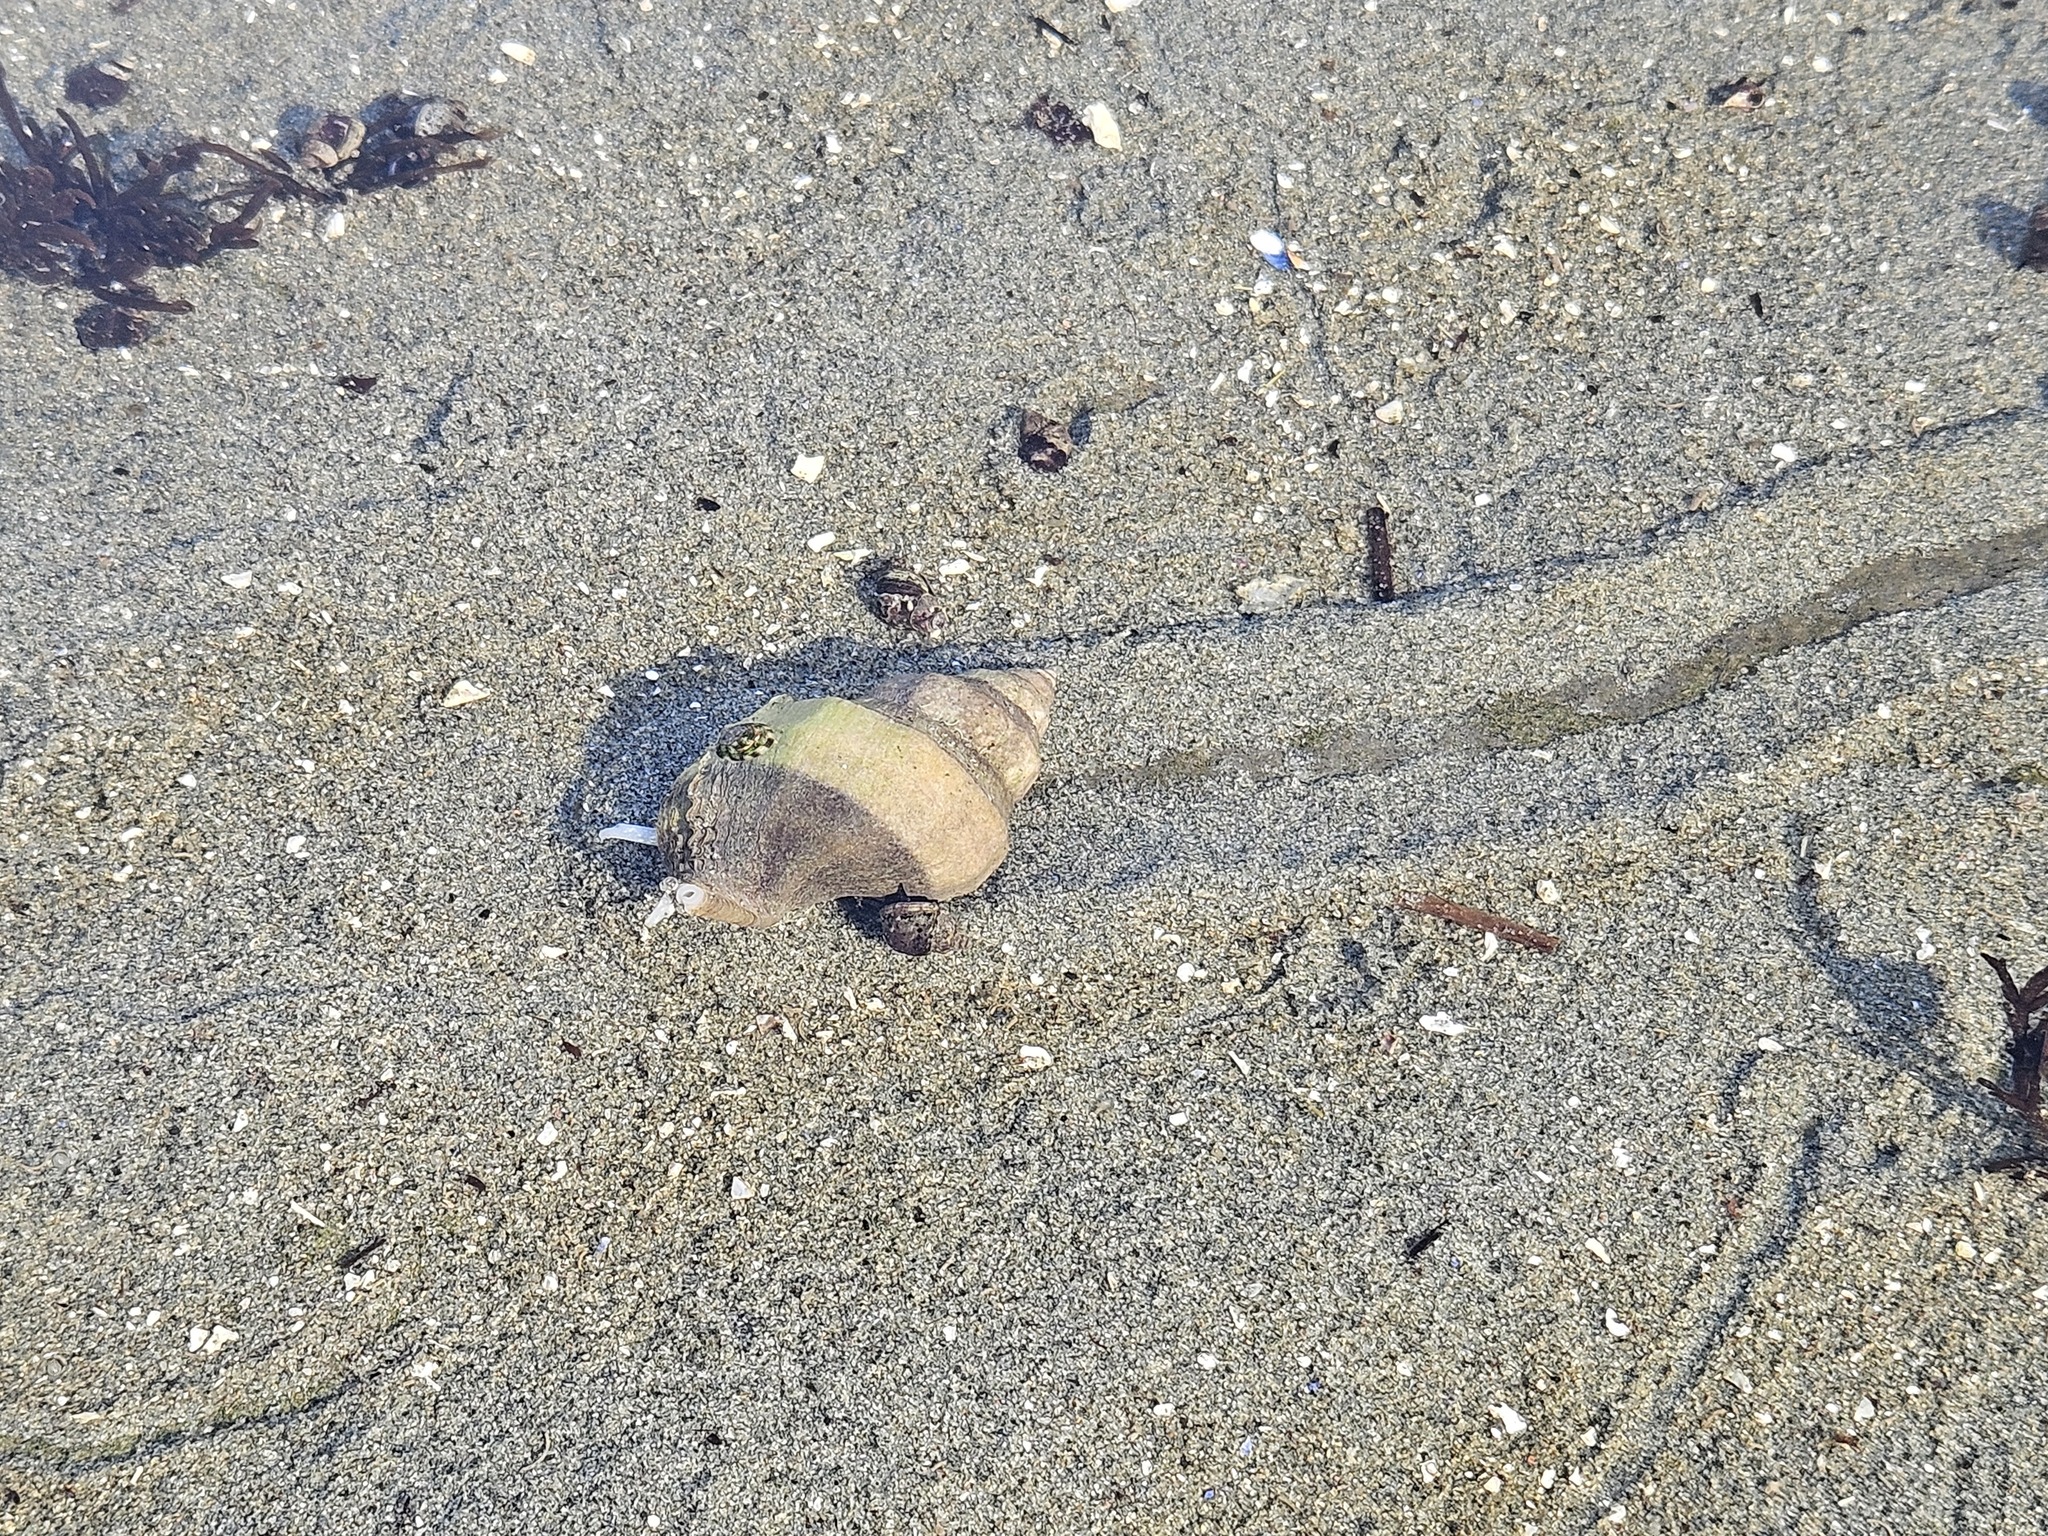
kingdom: Animalia
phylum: Mollusca
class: Gastropoda
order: Neogastropoda
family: Muricidae
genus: Nucella
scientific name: Nucella lamellosa
